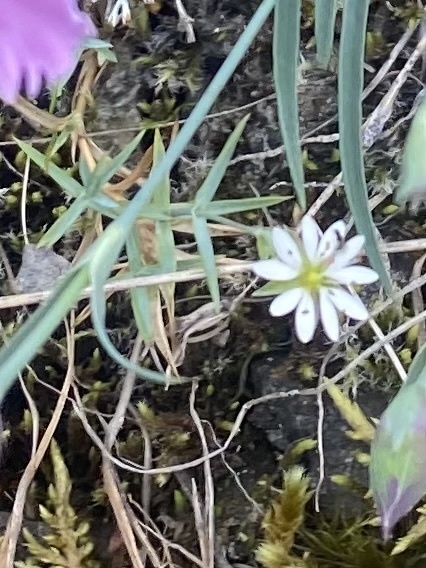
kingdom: Plantae
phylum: Tracheophyta
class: Magnoliopsida
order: Caryophyllales
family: Caryophyllaceae
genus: Stellaria
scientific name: Stellaria fischeriana
